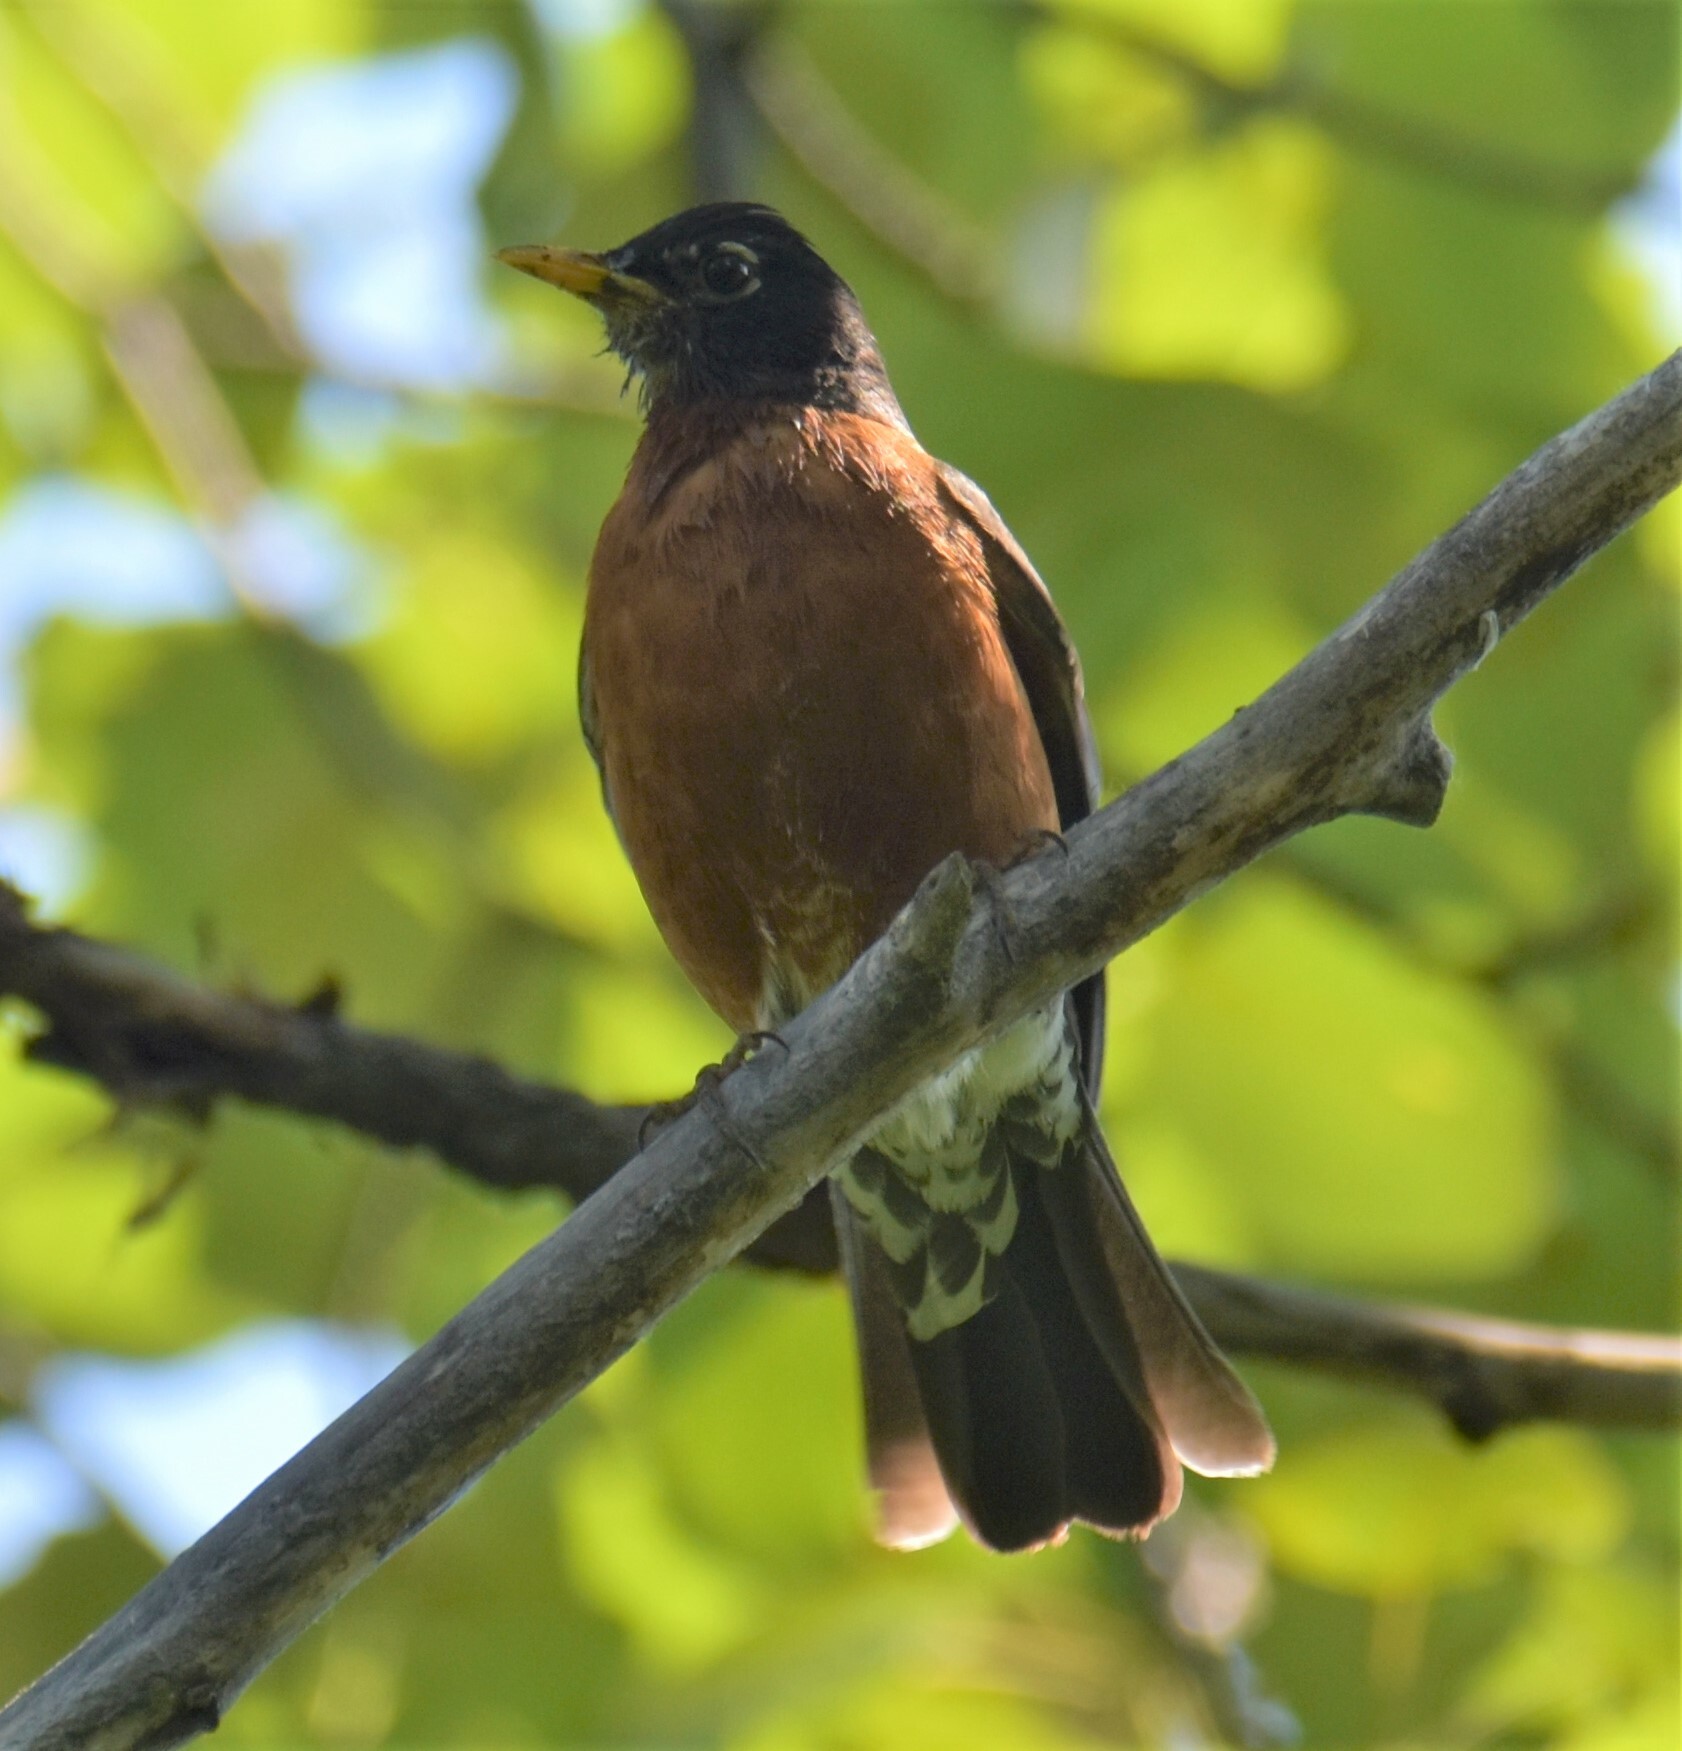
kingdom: Animalia
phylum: Chordata
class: Aves
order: Passeriformes
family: Turdidae
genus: Turdus
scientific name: Turdus migratorius
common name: American robin
